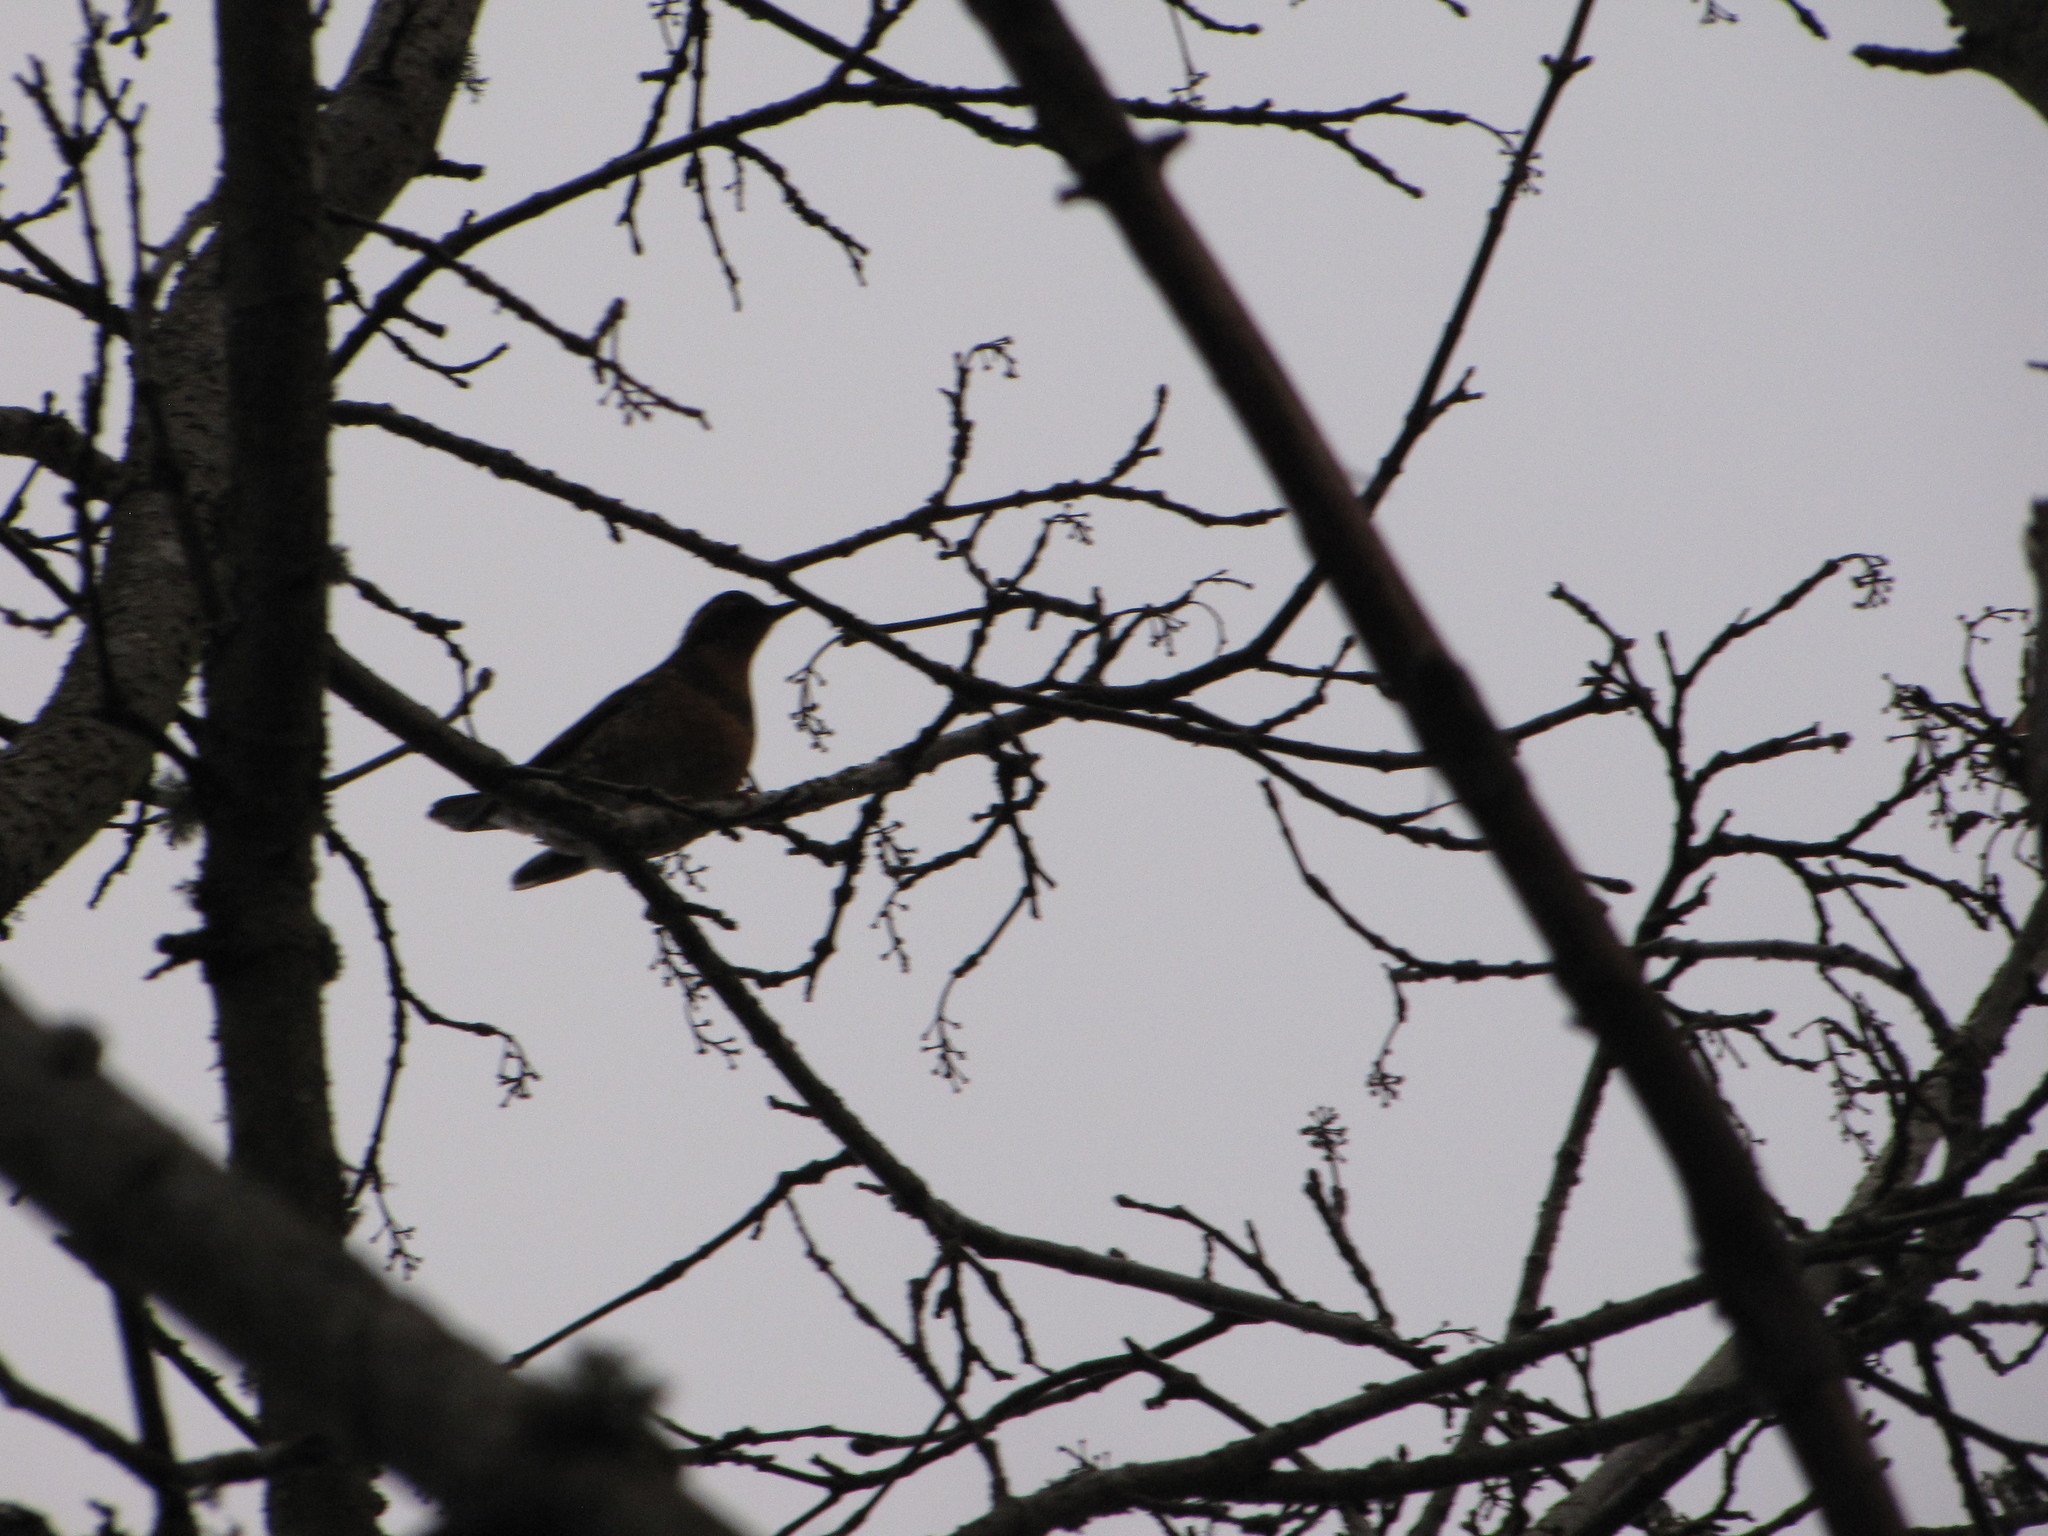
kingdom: Animalia
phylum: Chordata
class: Aves
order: Passeriformes
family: Turdidae
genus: Ixoreus
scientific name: Ixoreus naevius
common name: Varied thrush
